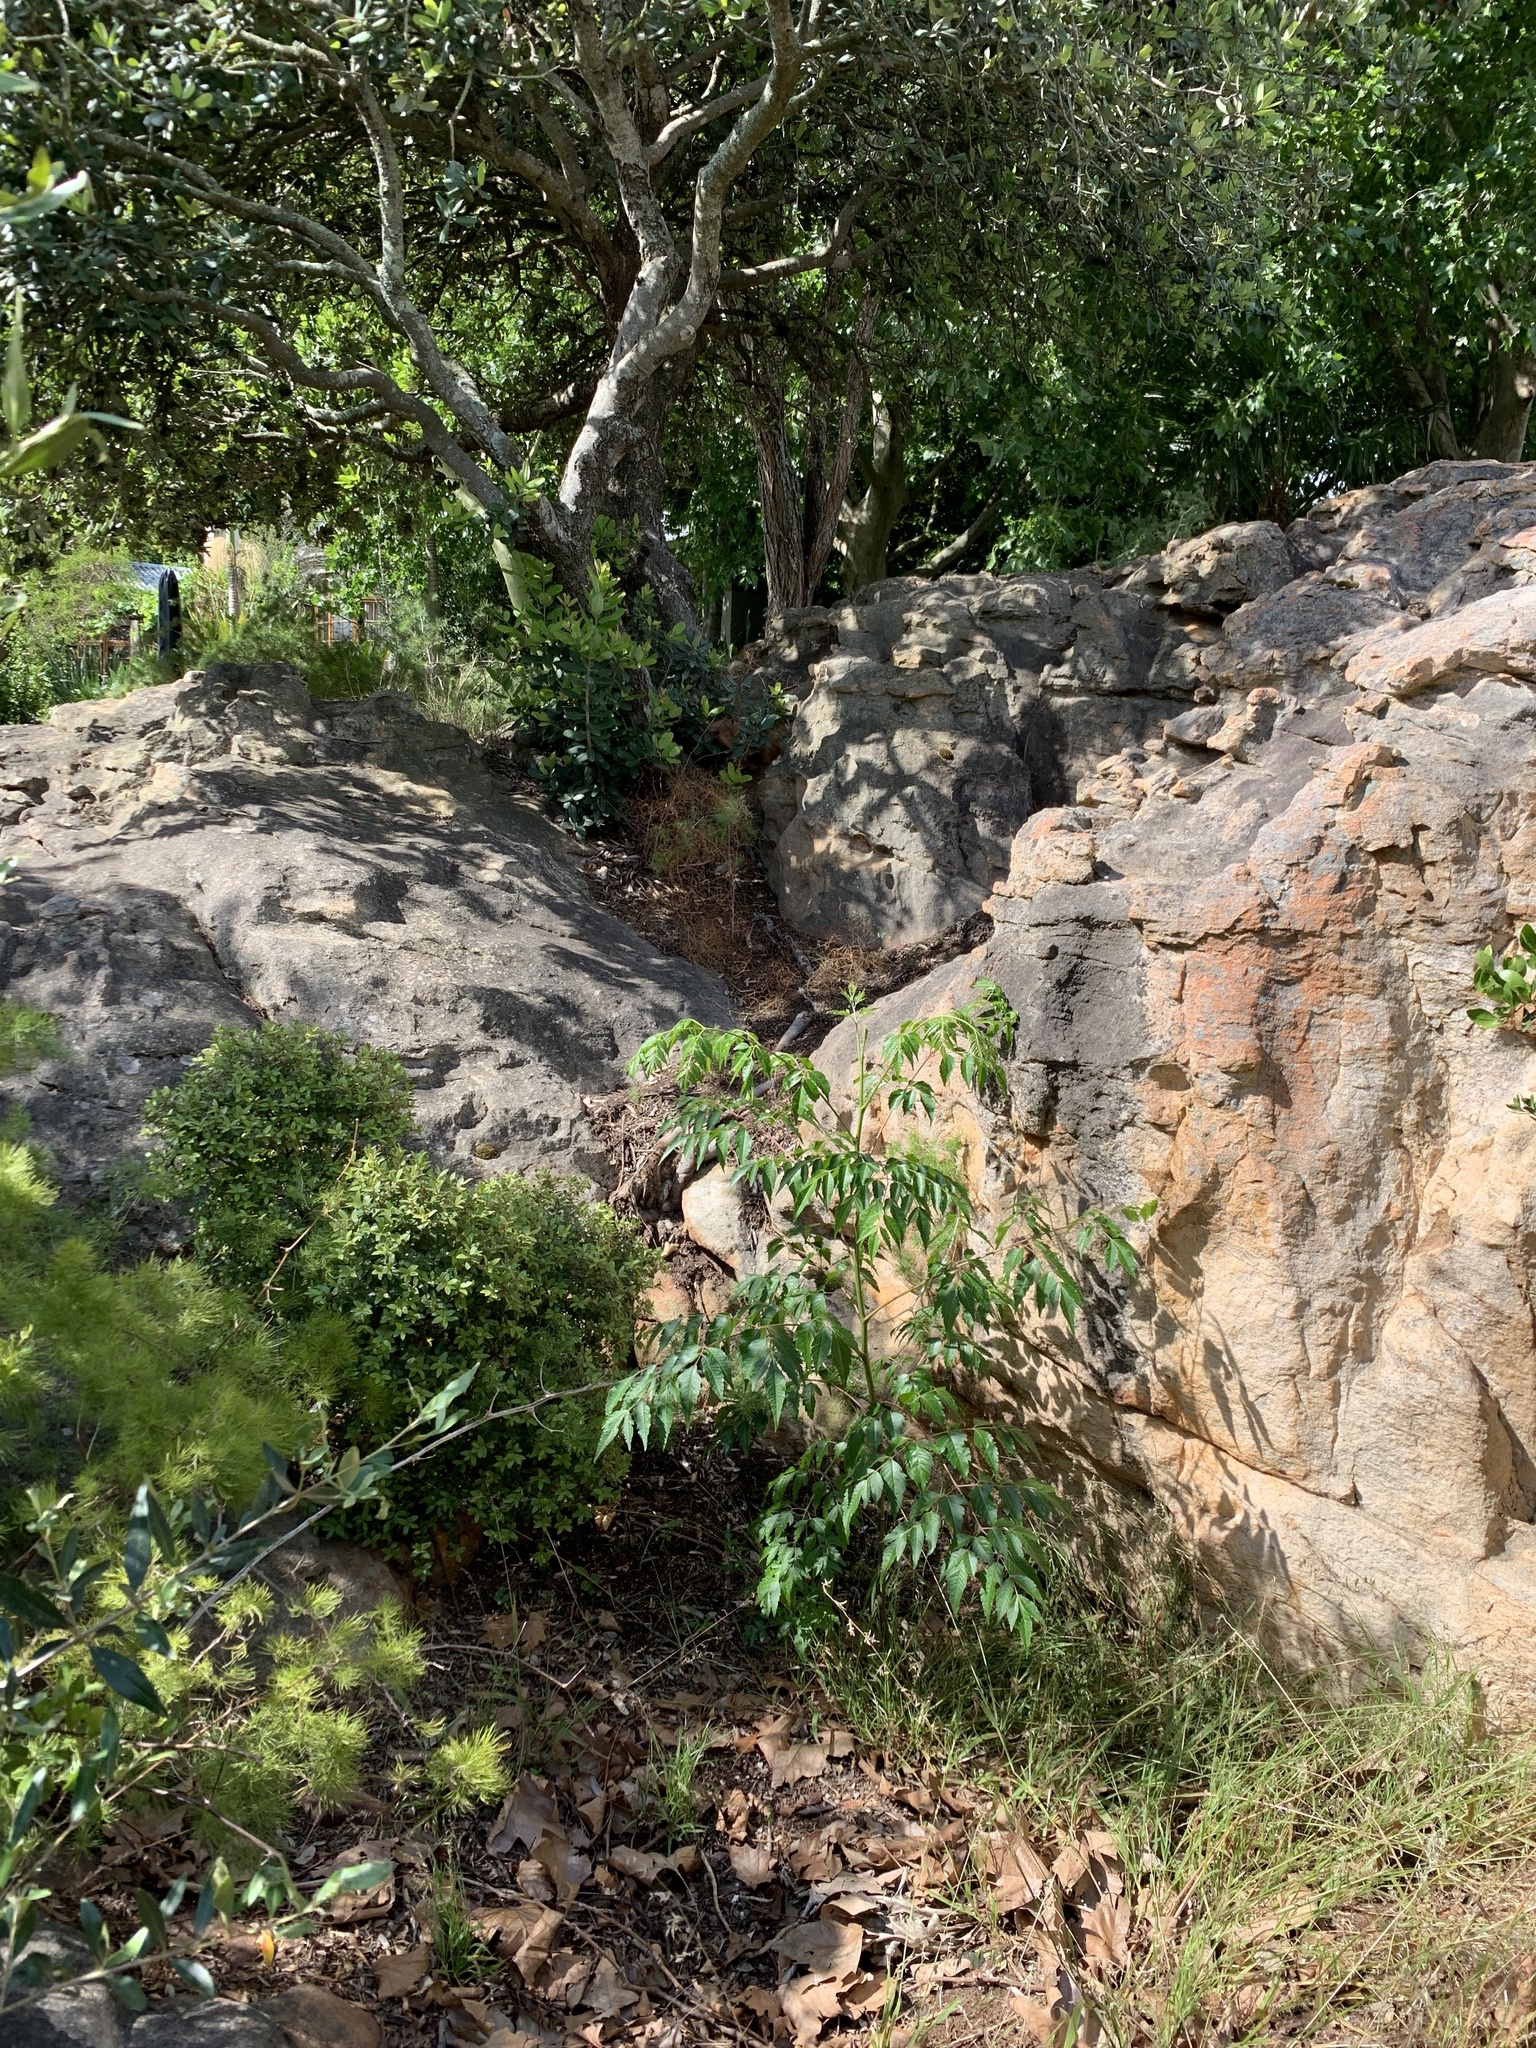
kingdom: Plantae
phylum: Tracheophyta
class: Magnoliopsida
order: Sapindales
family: Meliaceae
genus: Melia
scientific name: Melia azedarach
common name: Chinaberrytree
